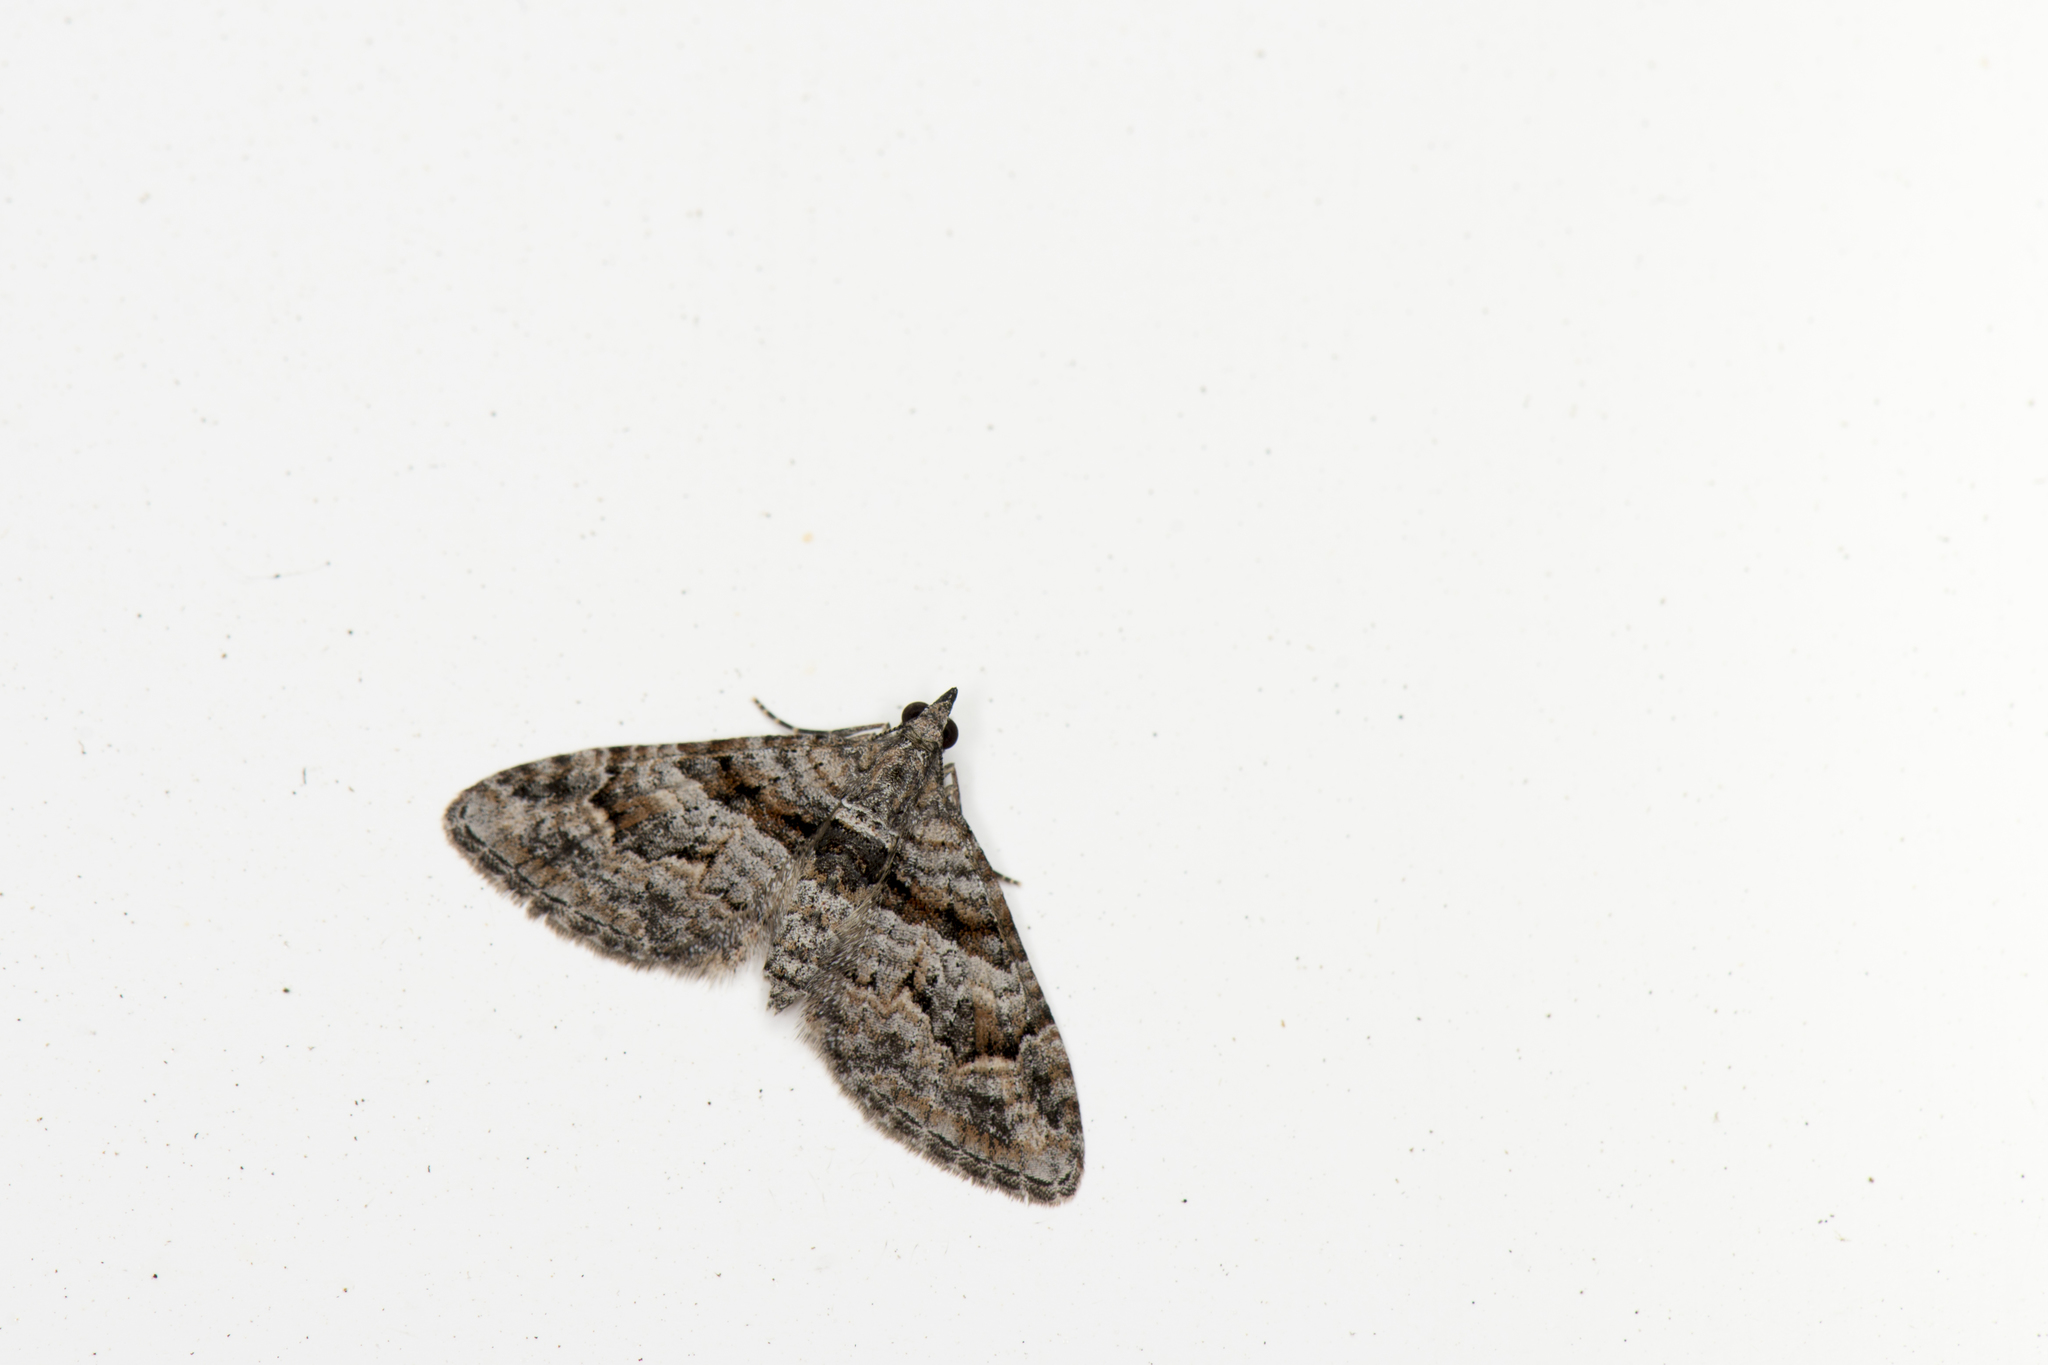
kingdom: Animalia
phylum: Arthropoda
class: Insecta
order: Lepidoptera
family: Geometridae
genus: Phrissogonus
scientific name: Phrissogonus laticostata
